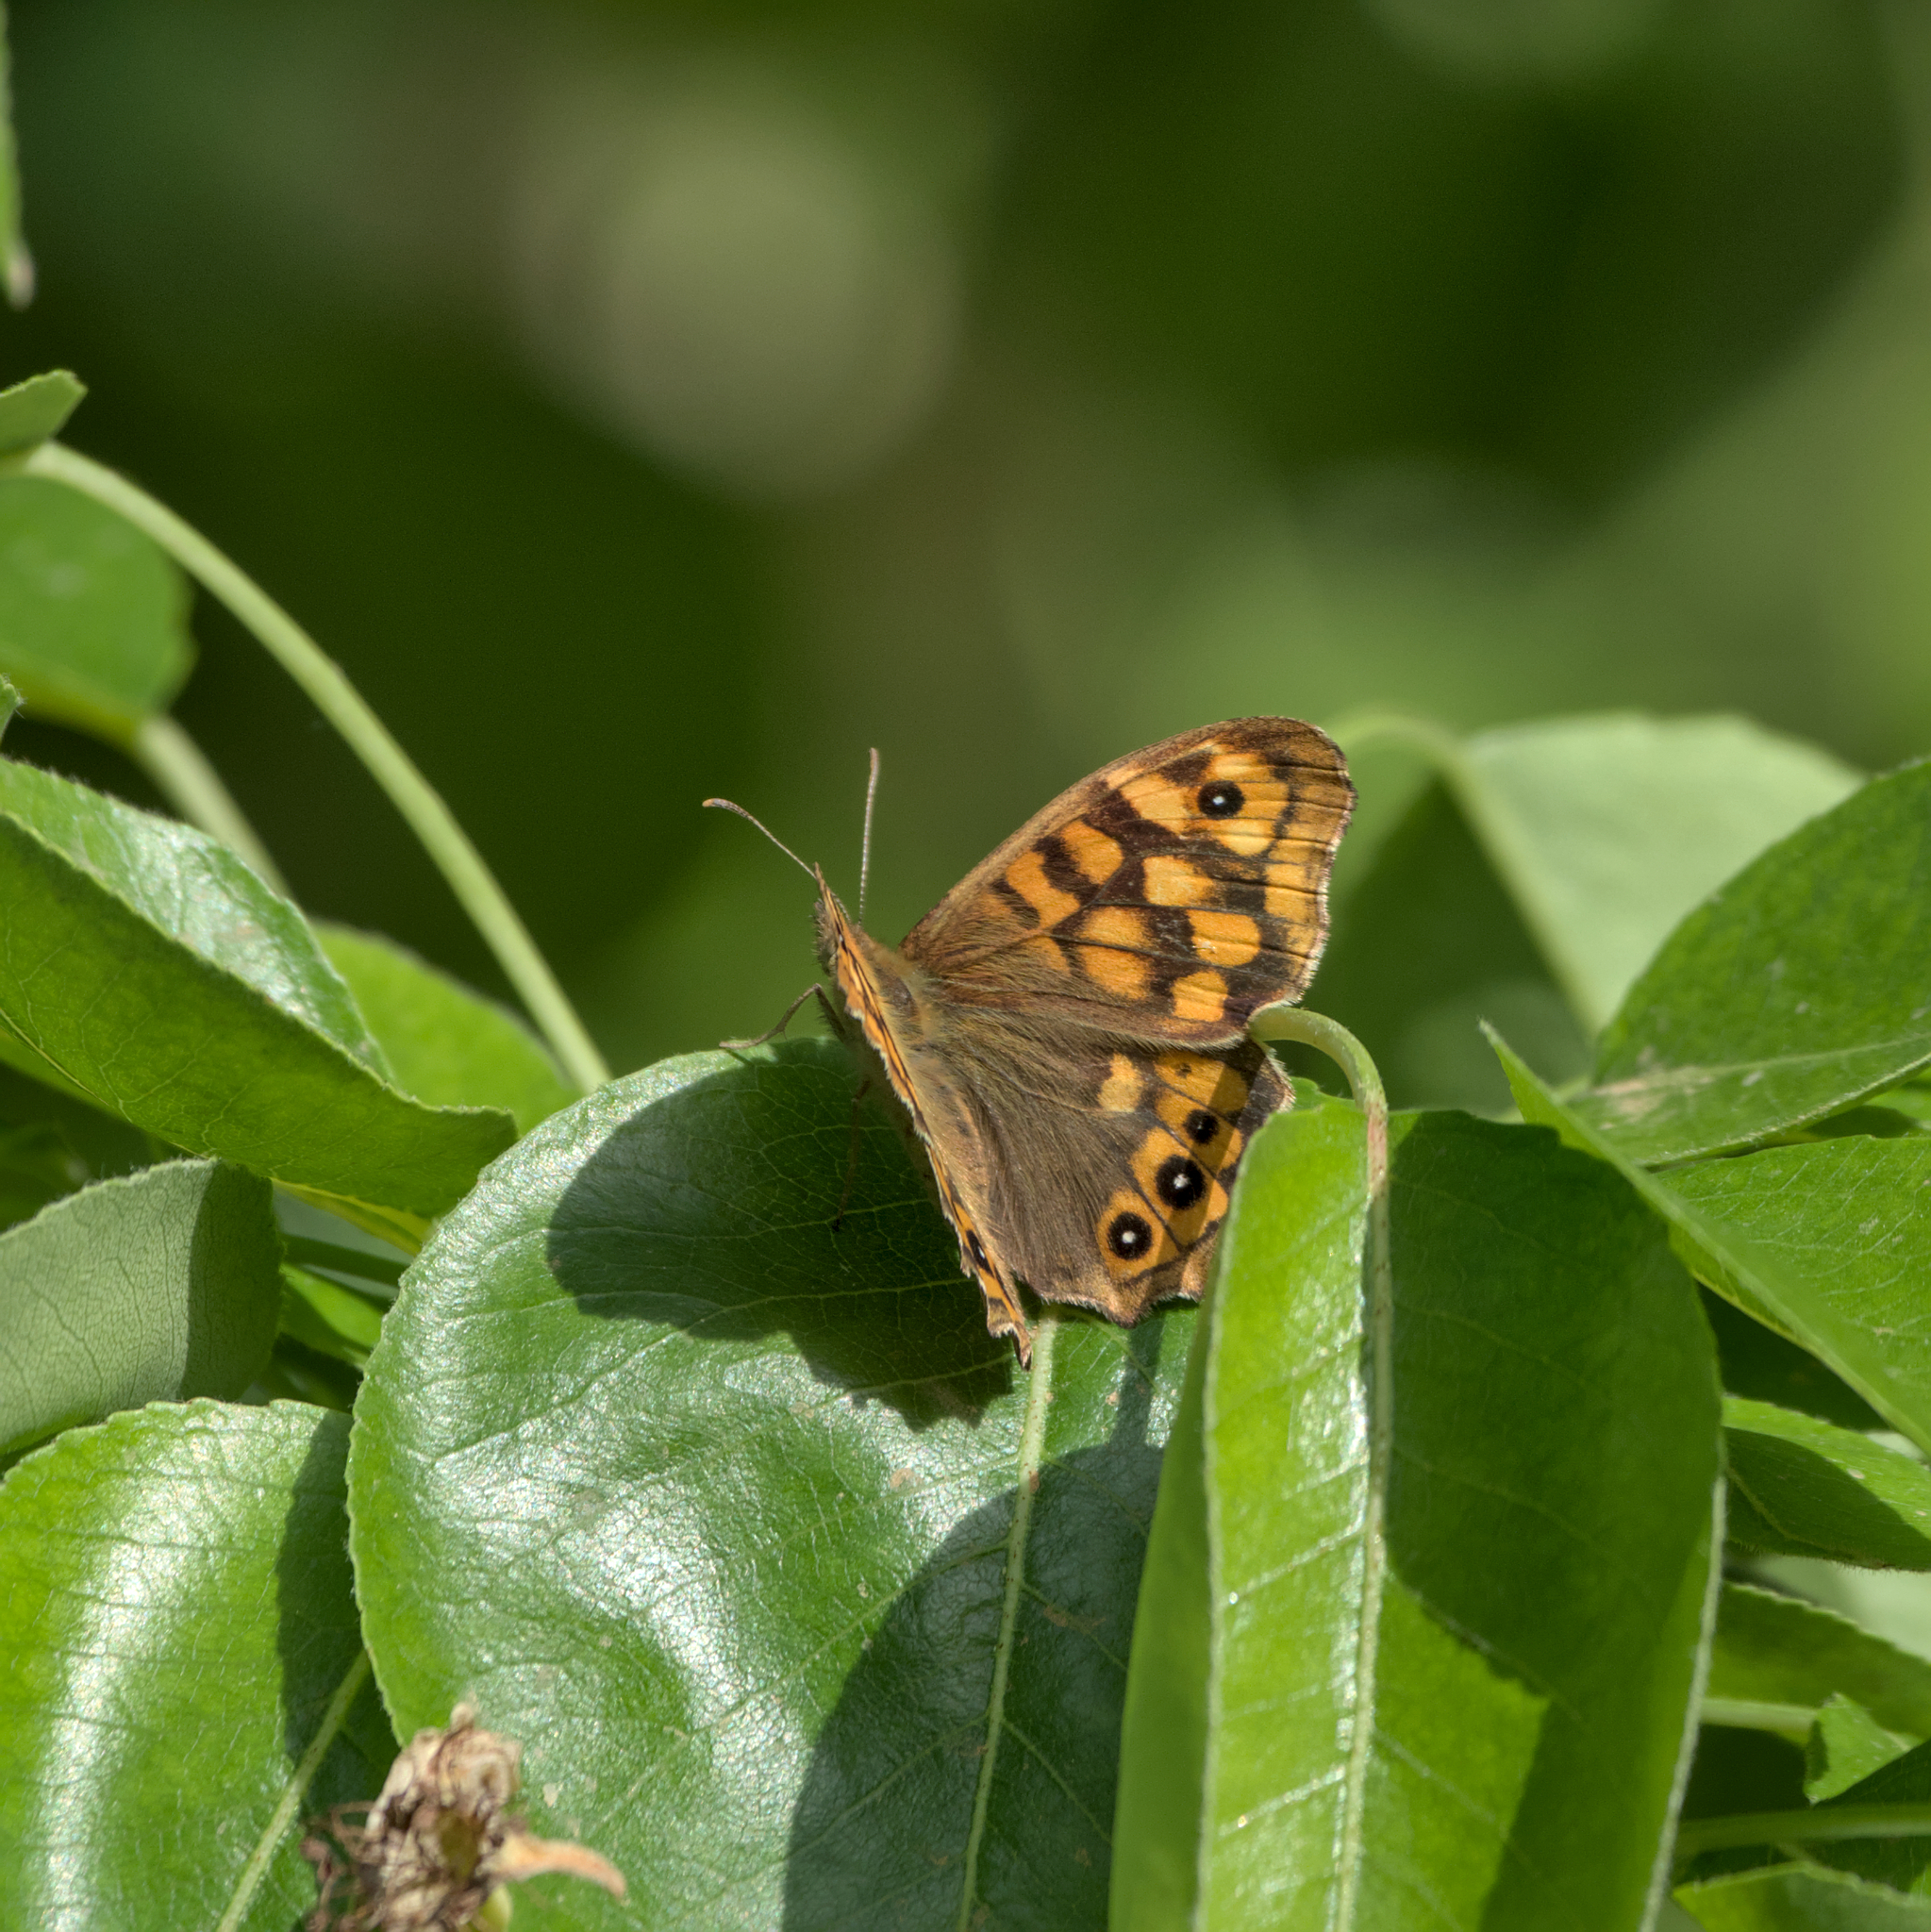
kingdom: Animalia
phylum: Arthropoda
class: Insecta
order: Lepidoptera
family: Nymphalidae
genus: Pararge
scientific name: Pararge aegeria
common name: Speckled wood
